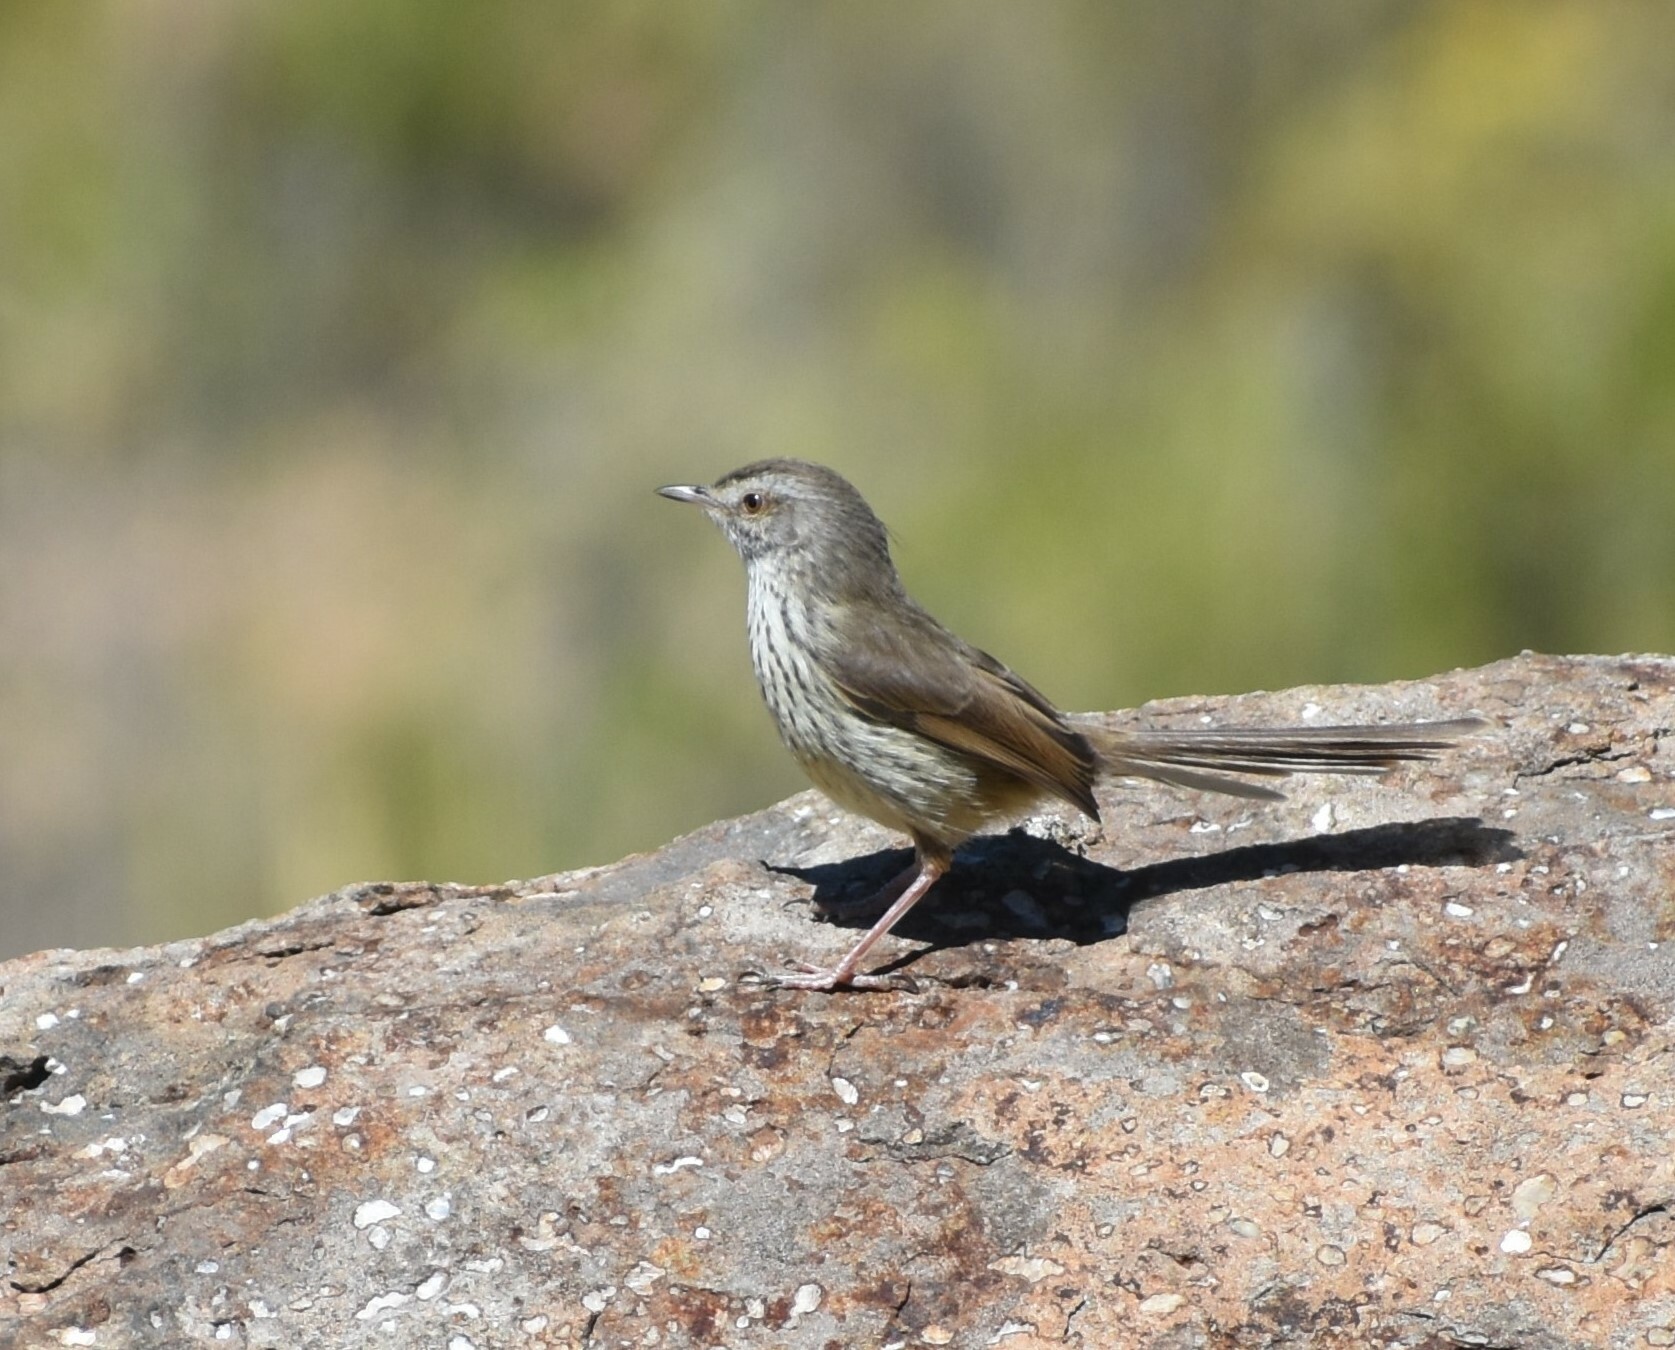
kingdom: Animalia
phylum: Chordata
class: Aves
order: Passeriformes
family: Cisticolidae
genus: Prinia
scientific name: Prinia maculosa
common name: Karoo prinia
